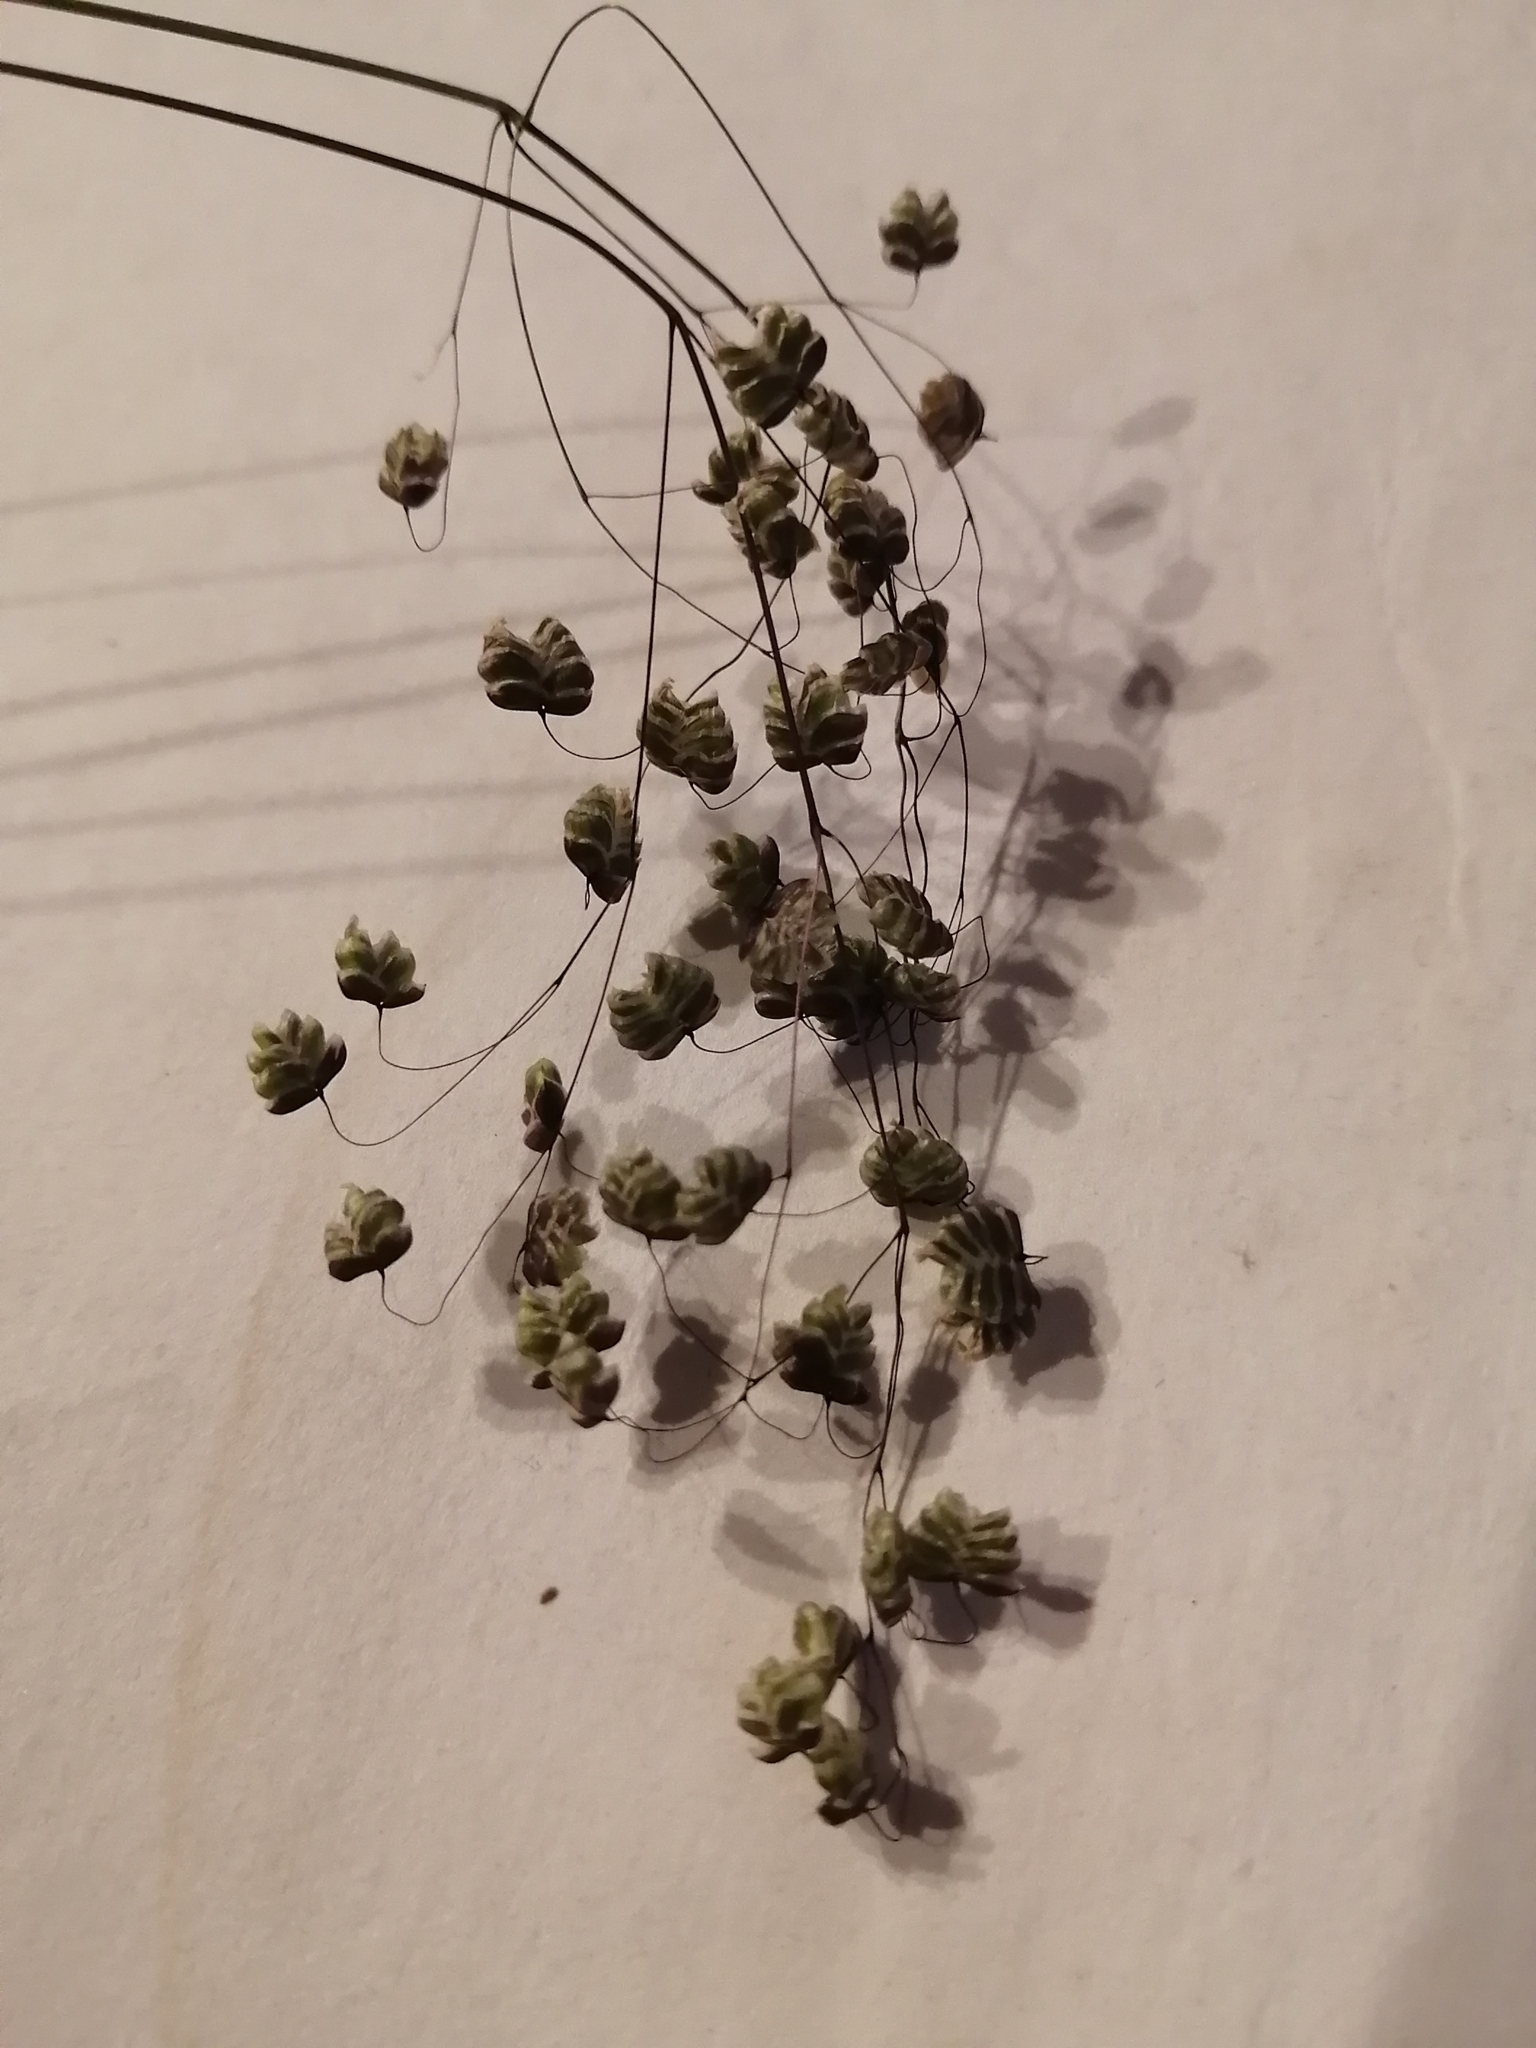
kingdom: Plantae
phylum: Tracheophyta
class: Liliopsida
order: Poales
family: Poaceae
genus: Briza
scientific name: Briza media
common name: Quaking grass
